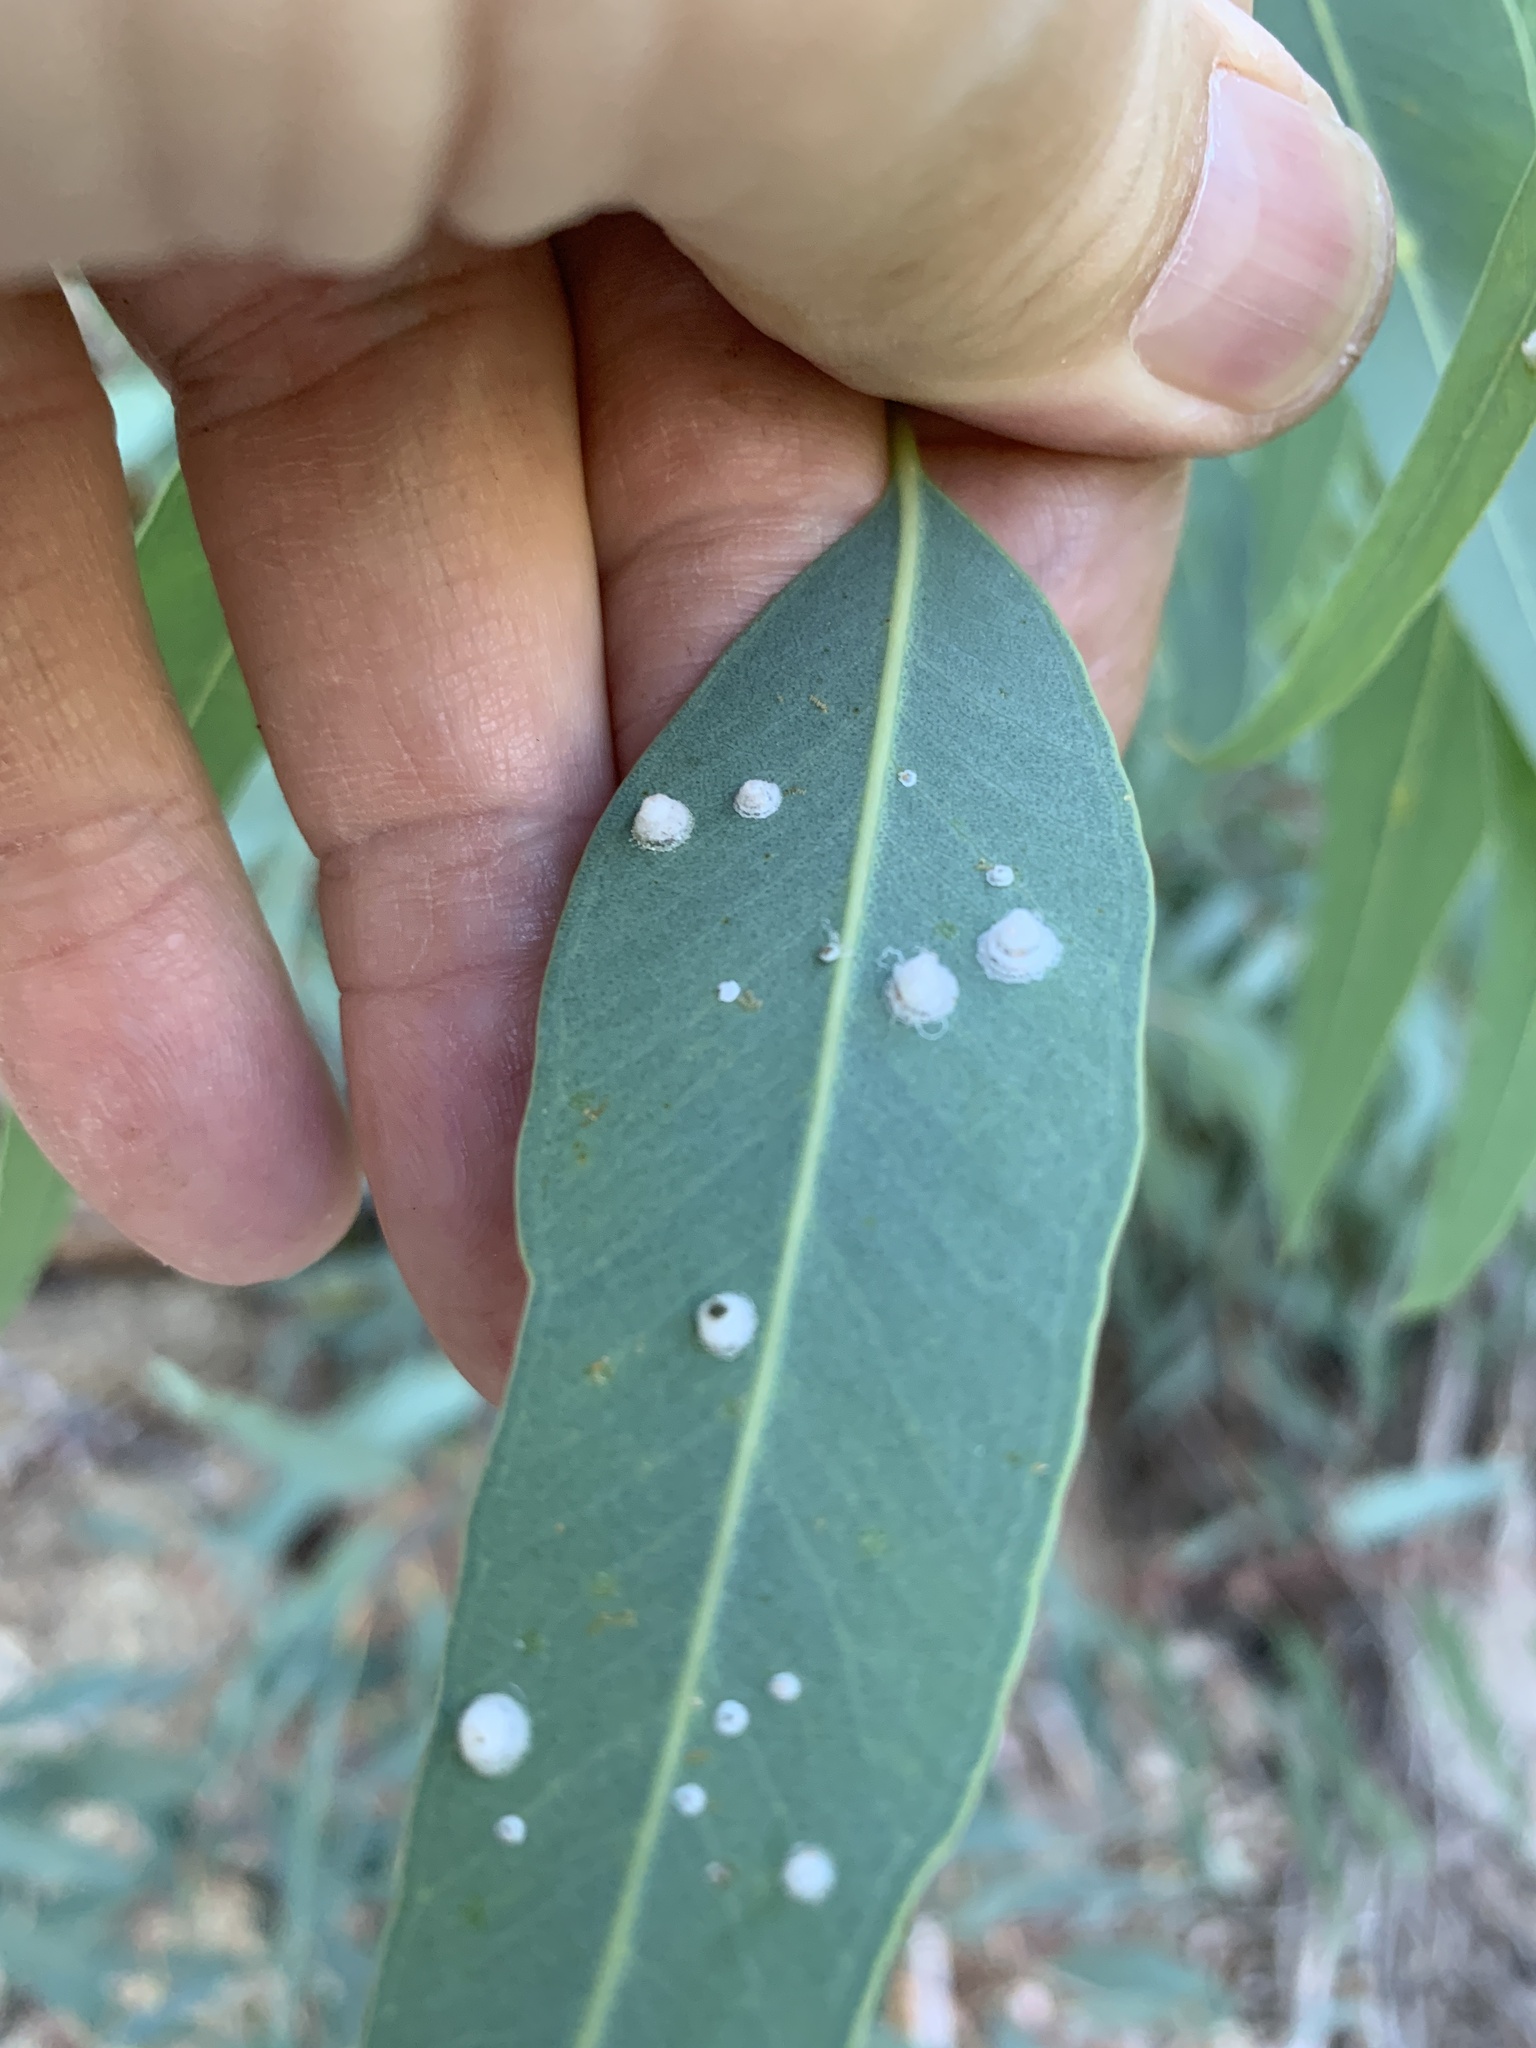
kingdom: Animalia
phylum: Arthropoda
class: Insecta
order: Hemiptera
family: Aphalaridae
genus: Glycaspis
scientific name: Glycaspis brimblecombei
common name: Red gum lerp psyllid
